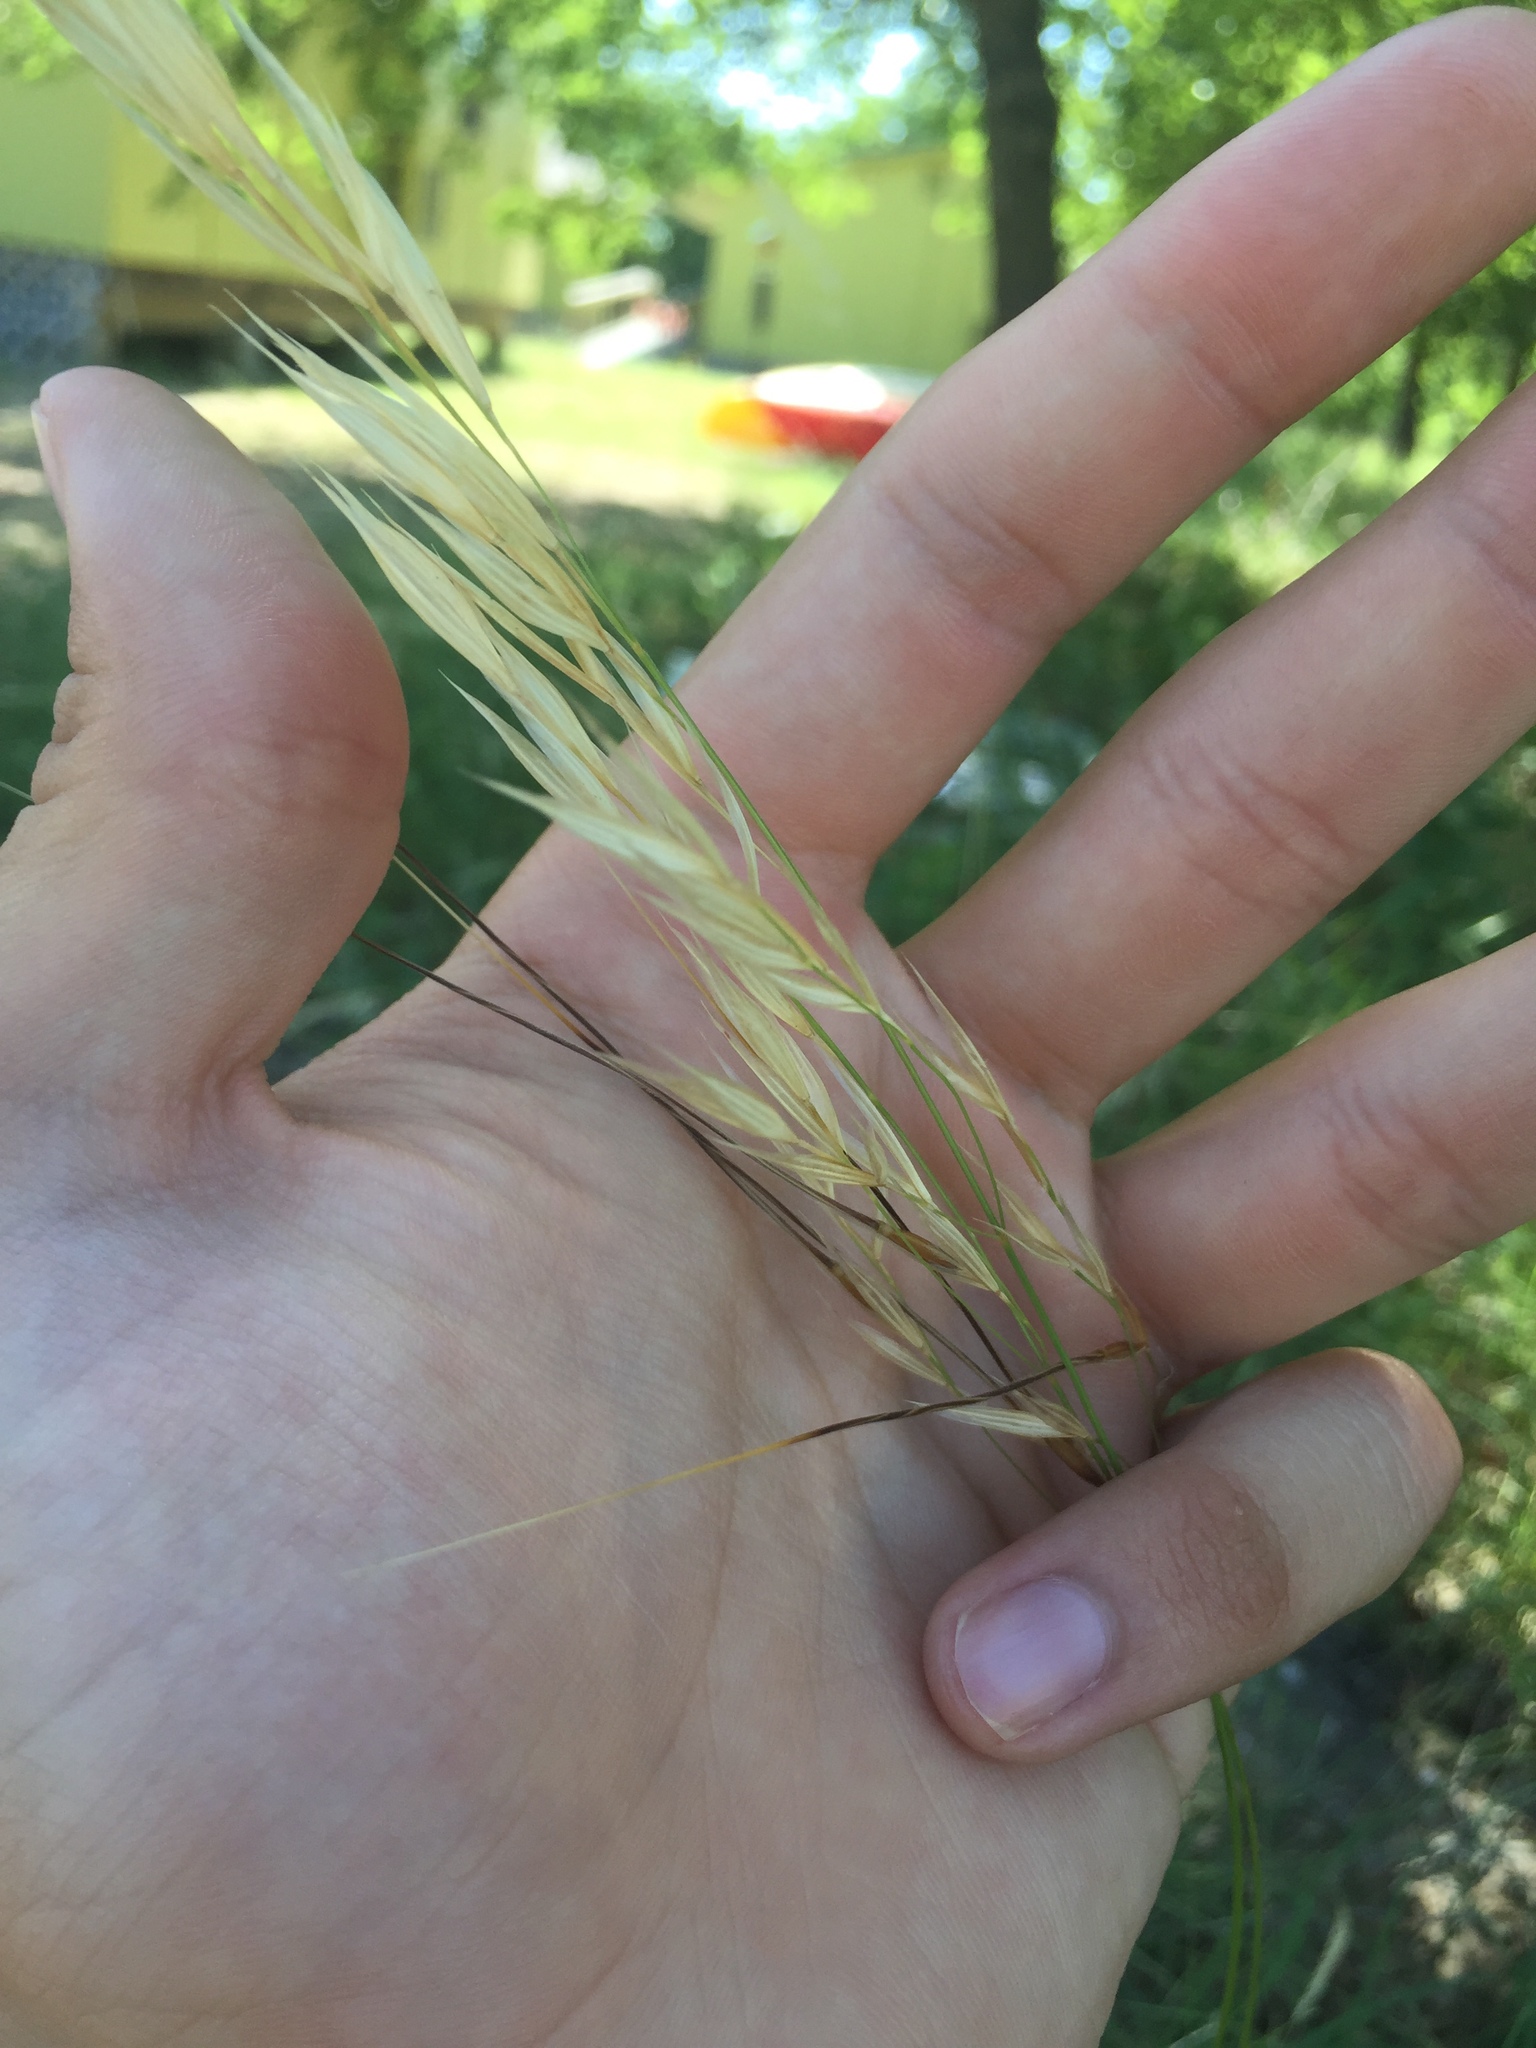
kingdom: Plantae
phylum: Tracheophyta
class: Liliopsida
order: Poales
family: Poaceae
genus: Nassella
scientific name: Nassella leucotricha
